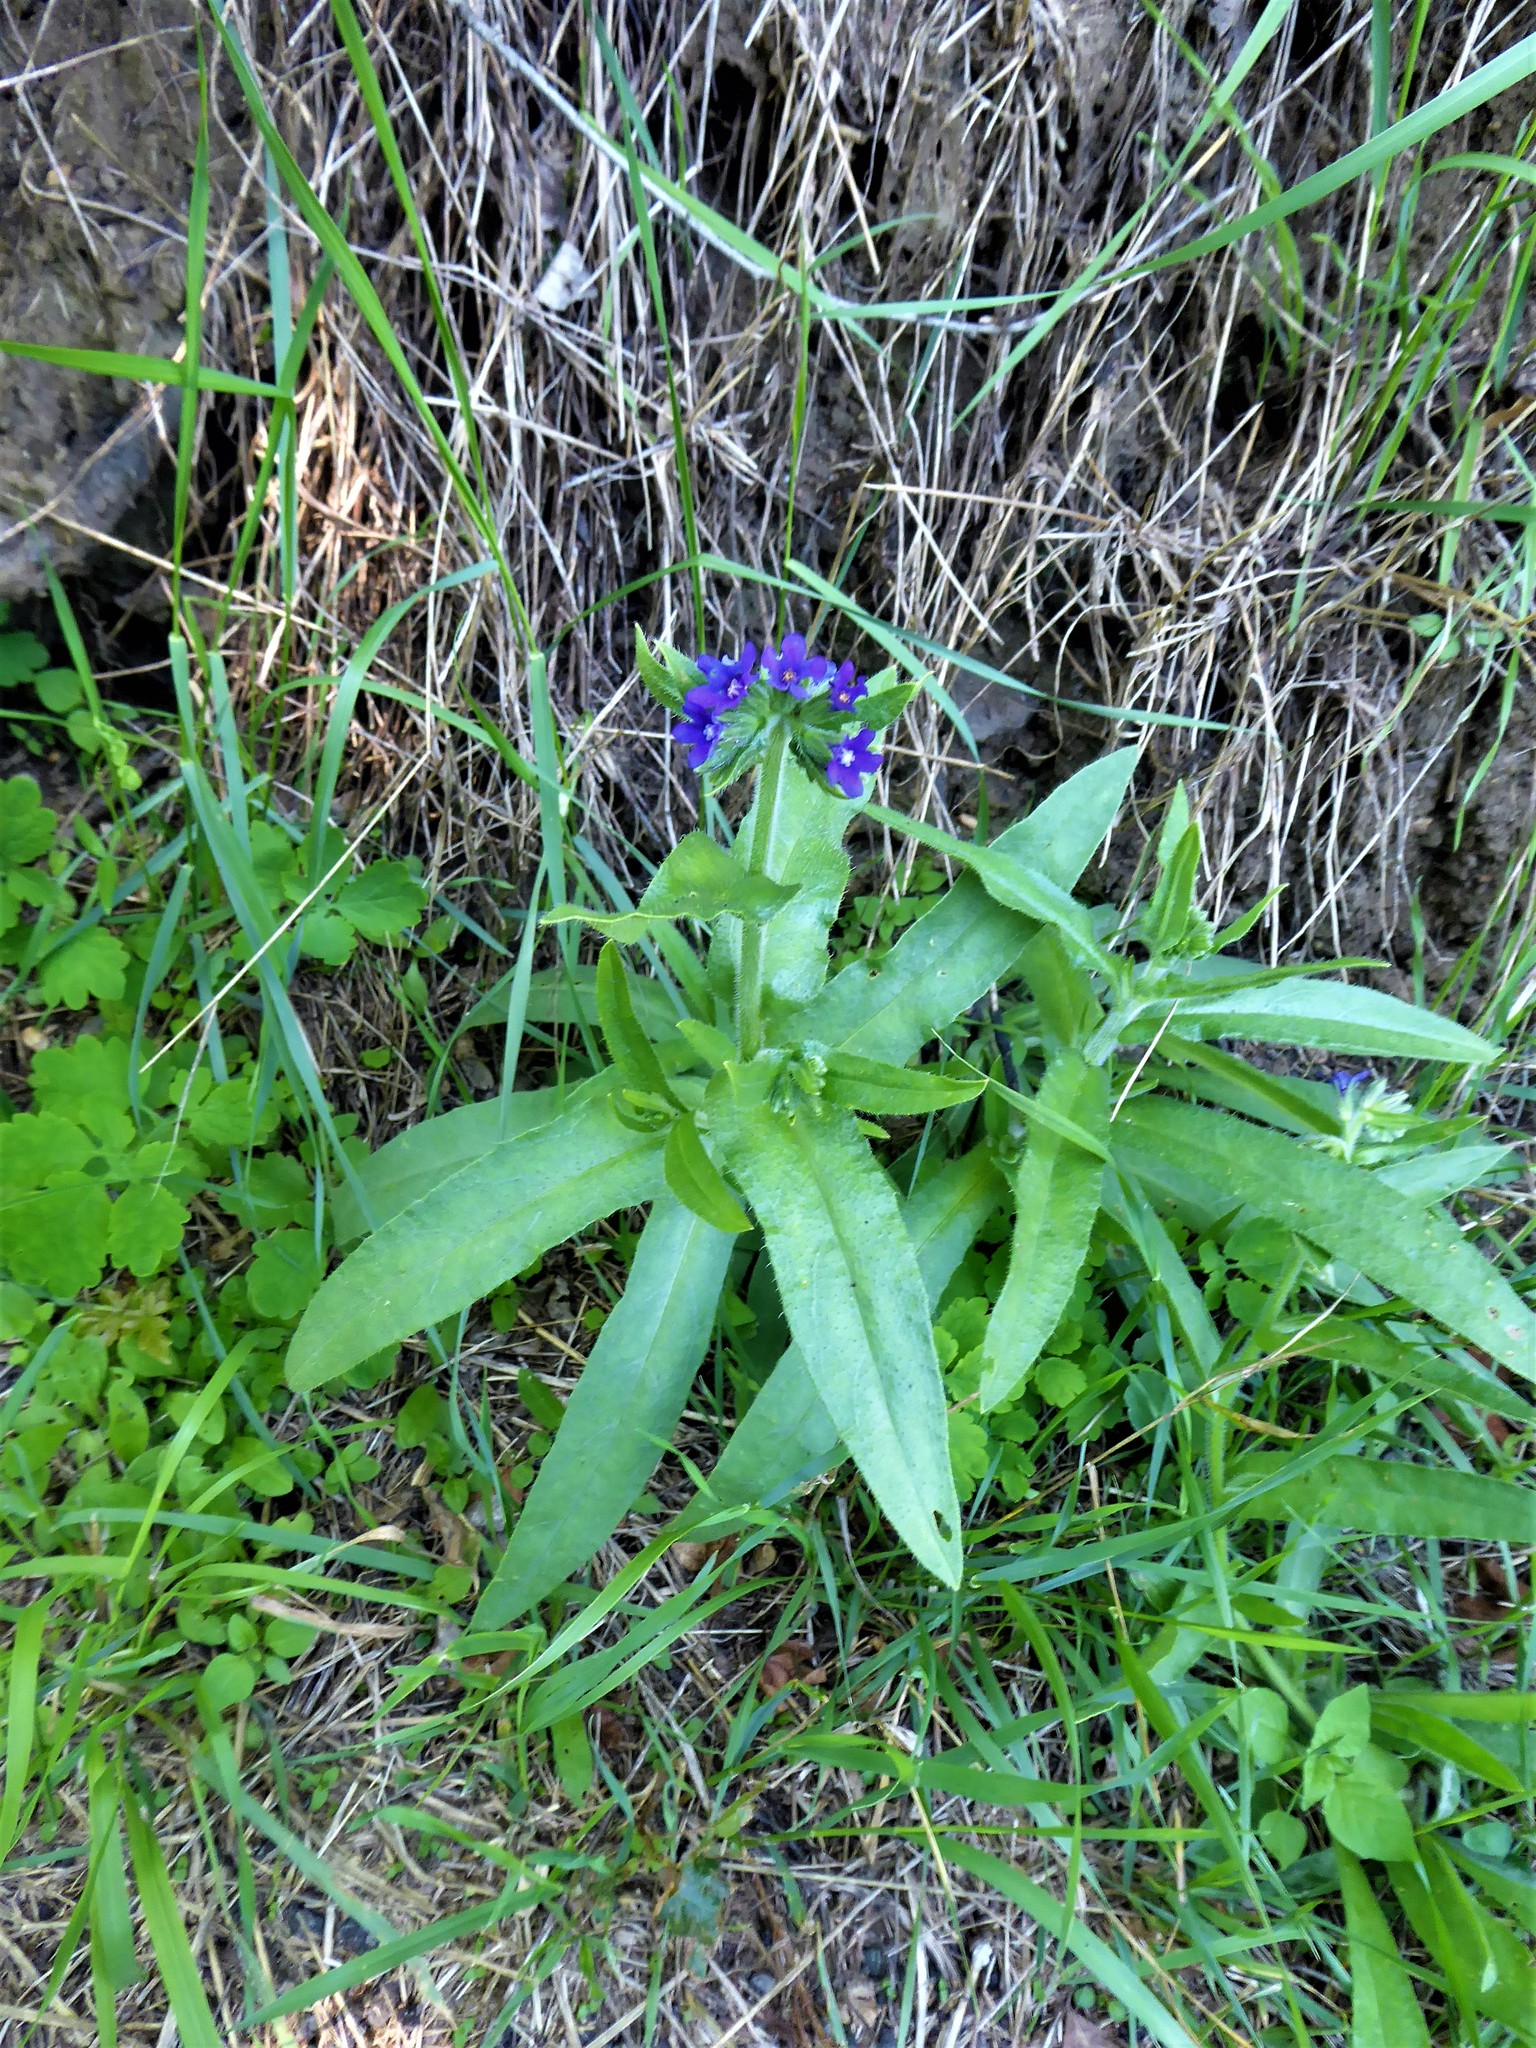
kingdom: Plantae
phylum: Tracheophyta
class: Magnoliopsida
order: Boraginales
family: Boraginaceae
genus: Anchusa
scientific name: Anchusa officinalis
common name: Alkanet
